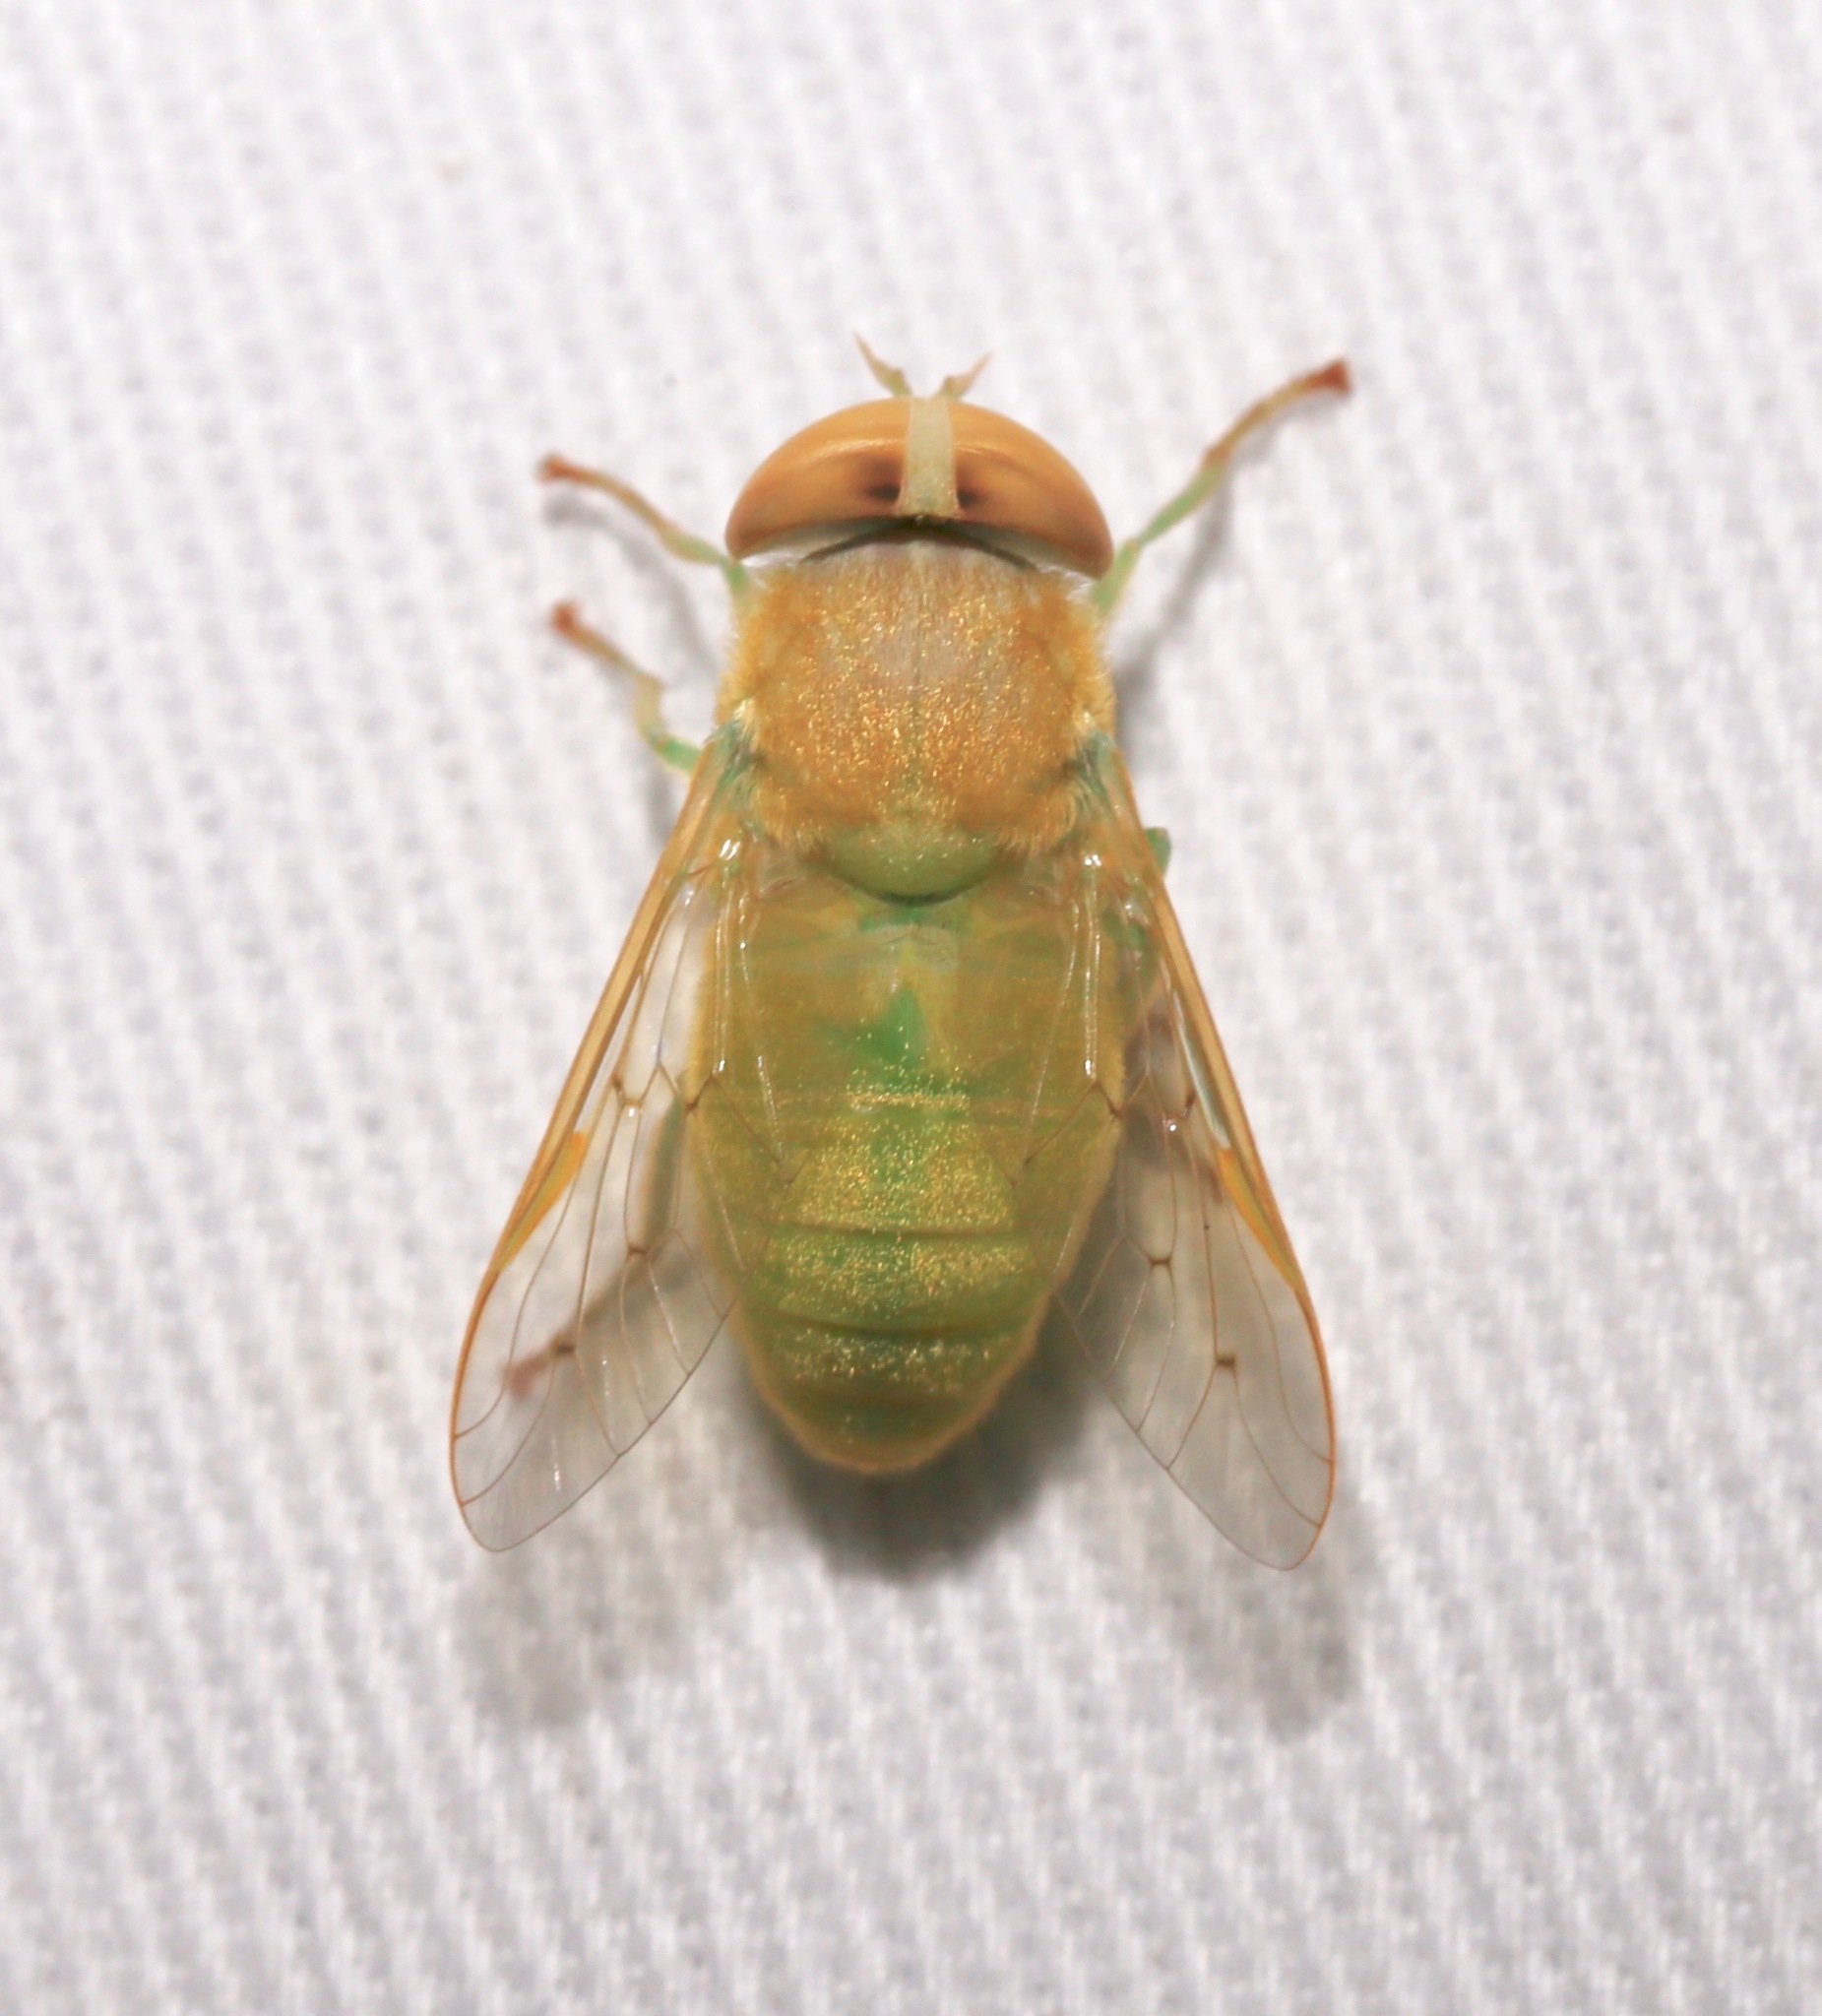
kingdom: Animalia
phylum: Arthropoda
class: Insecta
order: Diptera
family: Tabanidae
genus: Chlorotabanus
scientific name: Chlorotabanus crepuscularis
